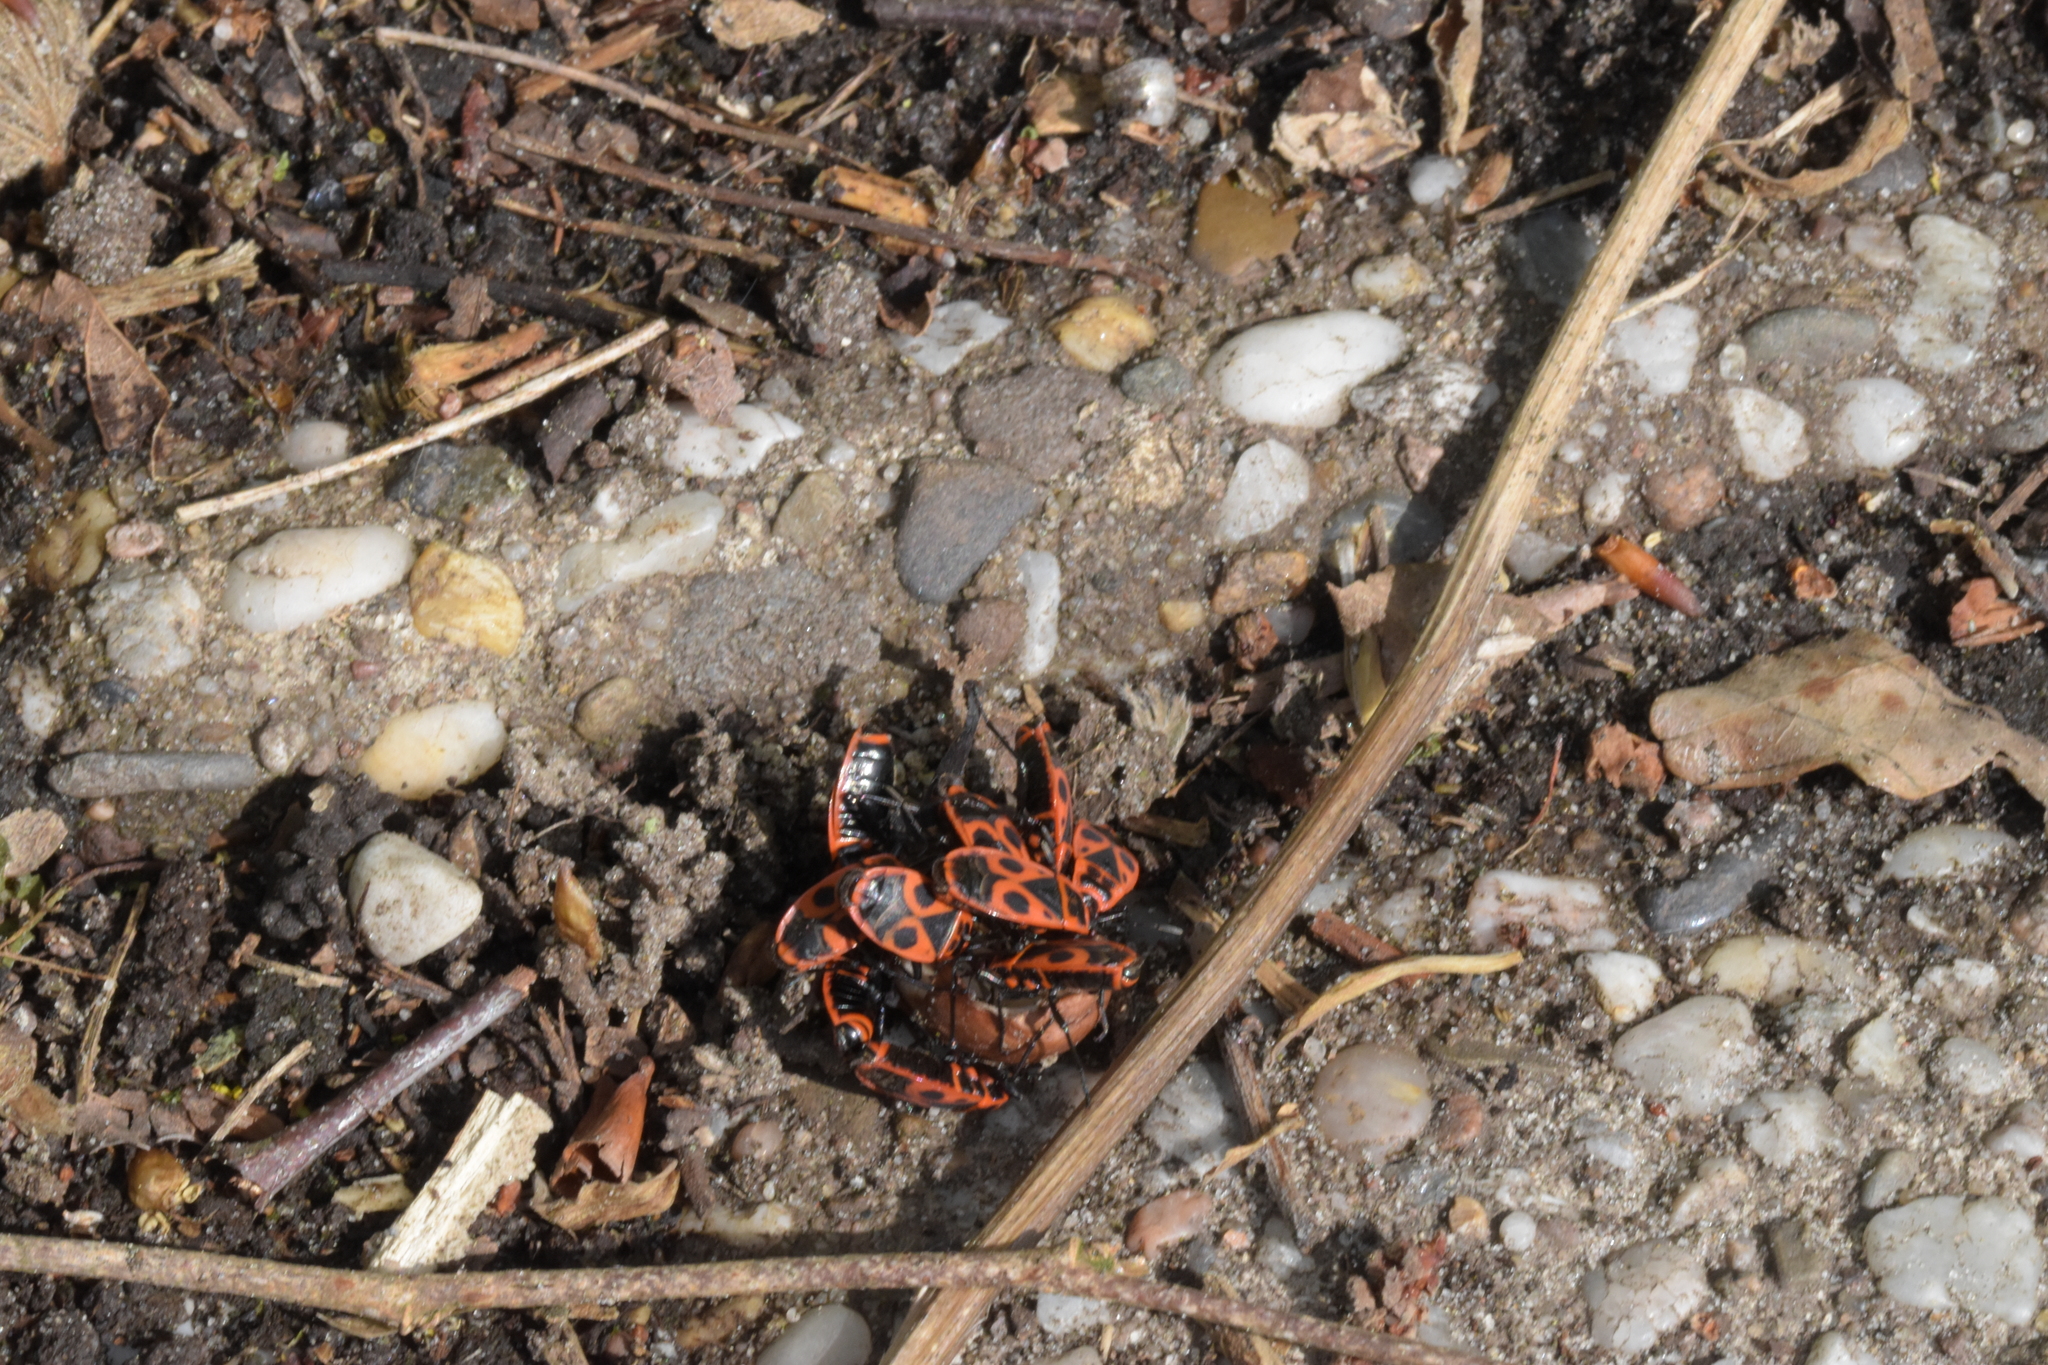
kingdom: Animalia
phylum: Arthropoda
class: Insecta
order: Hemiptera
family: Pyrrhocoridae
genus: Pyrrhocoris
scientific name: Pyrrhocoris apterus
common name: Firebug
